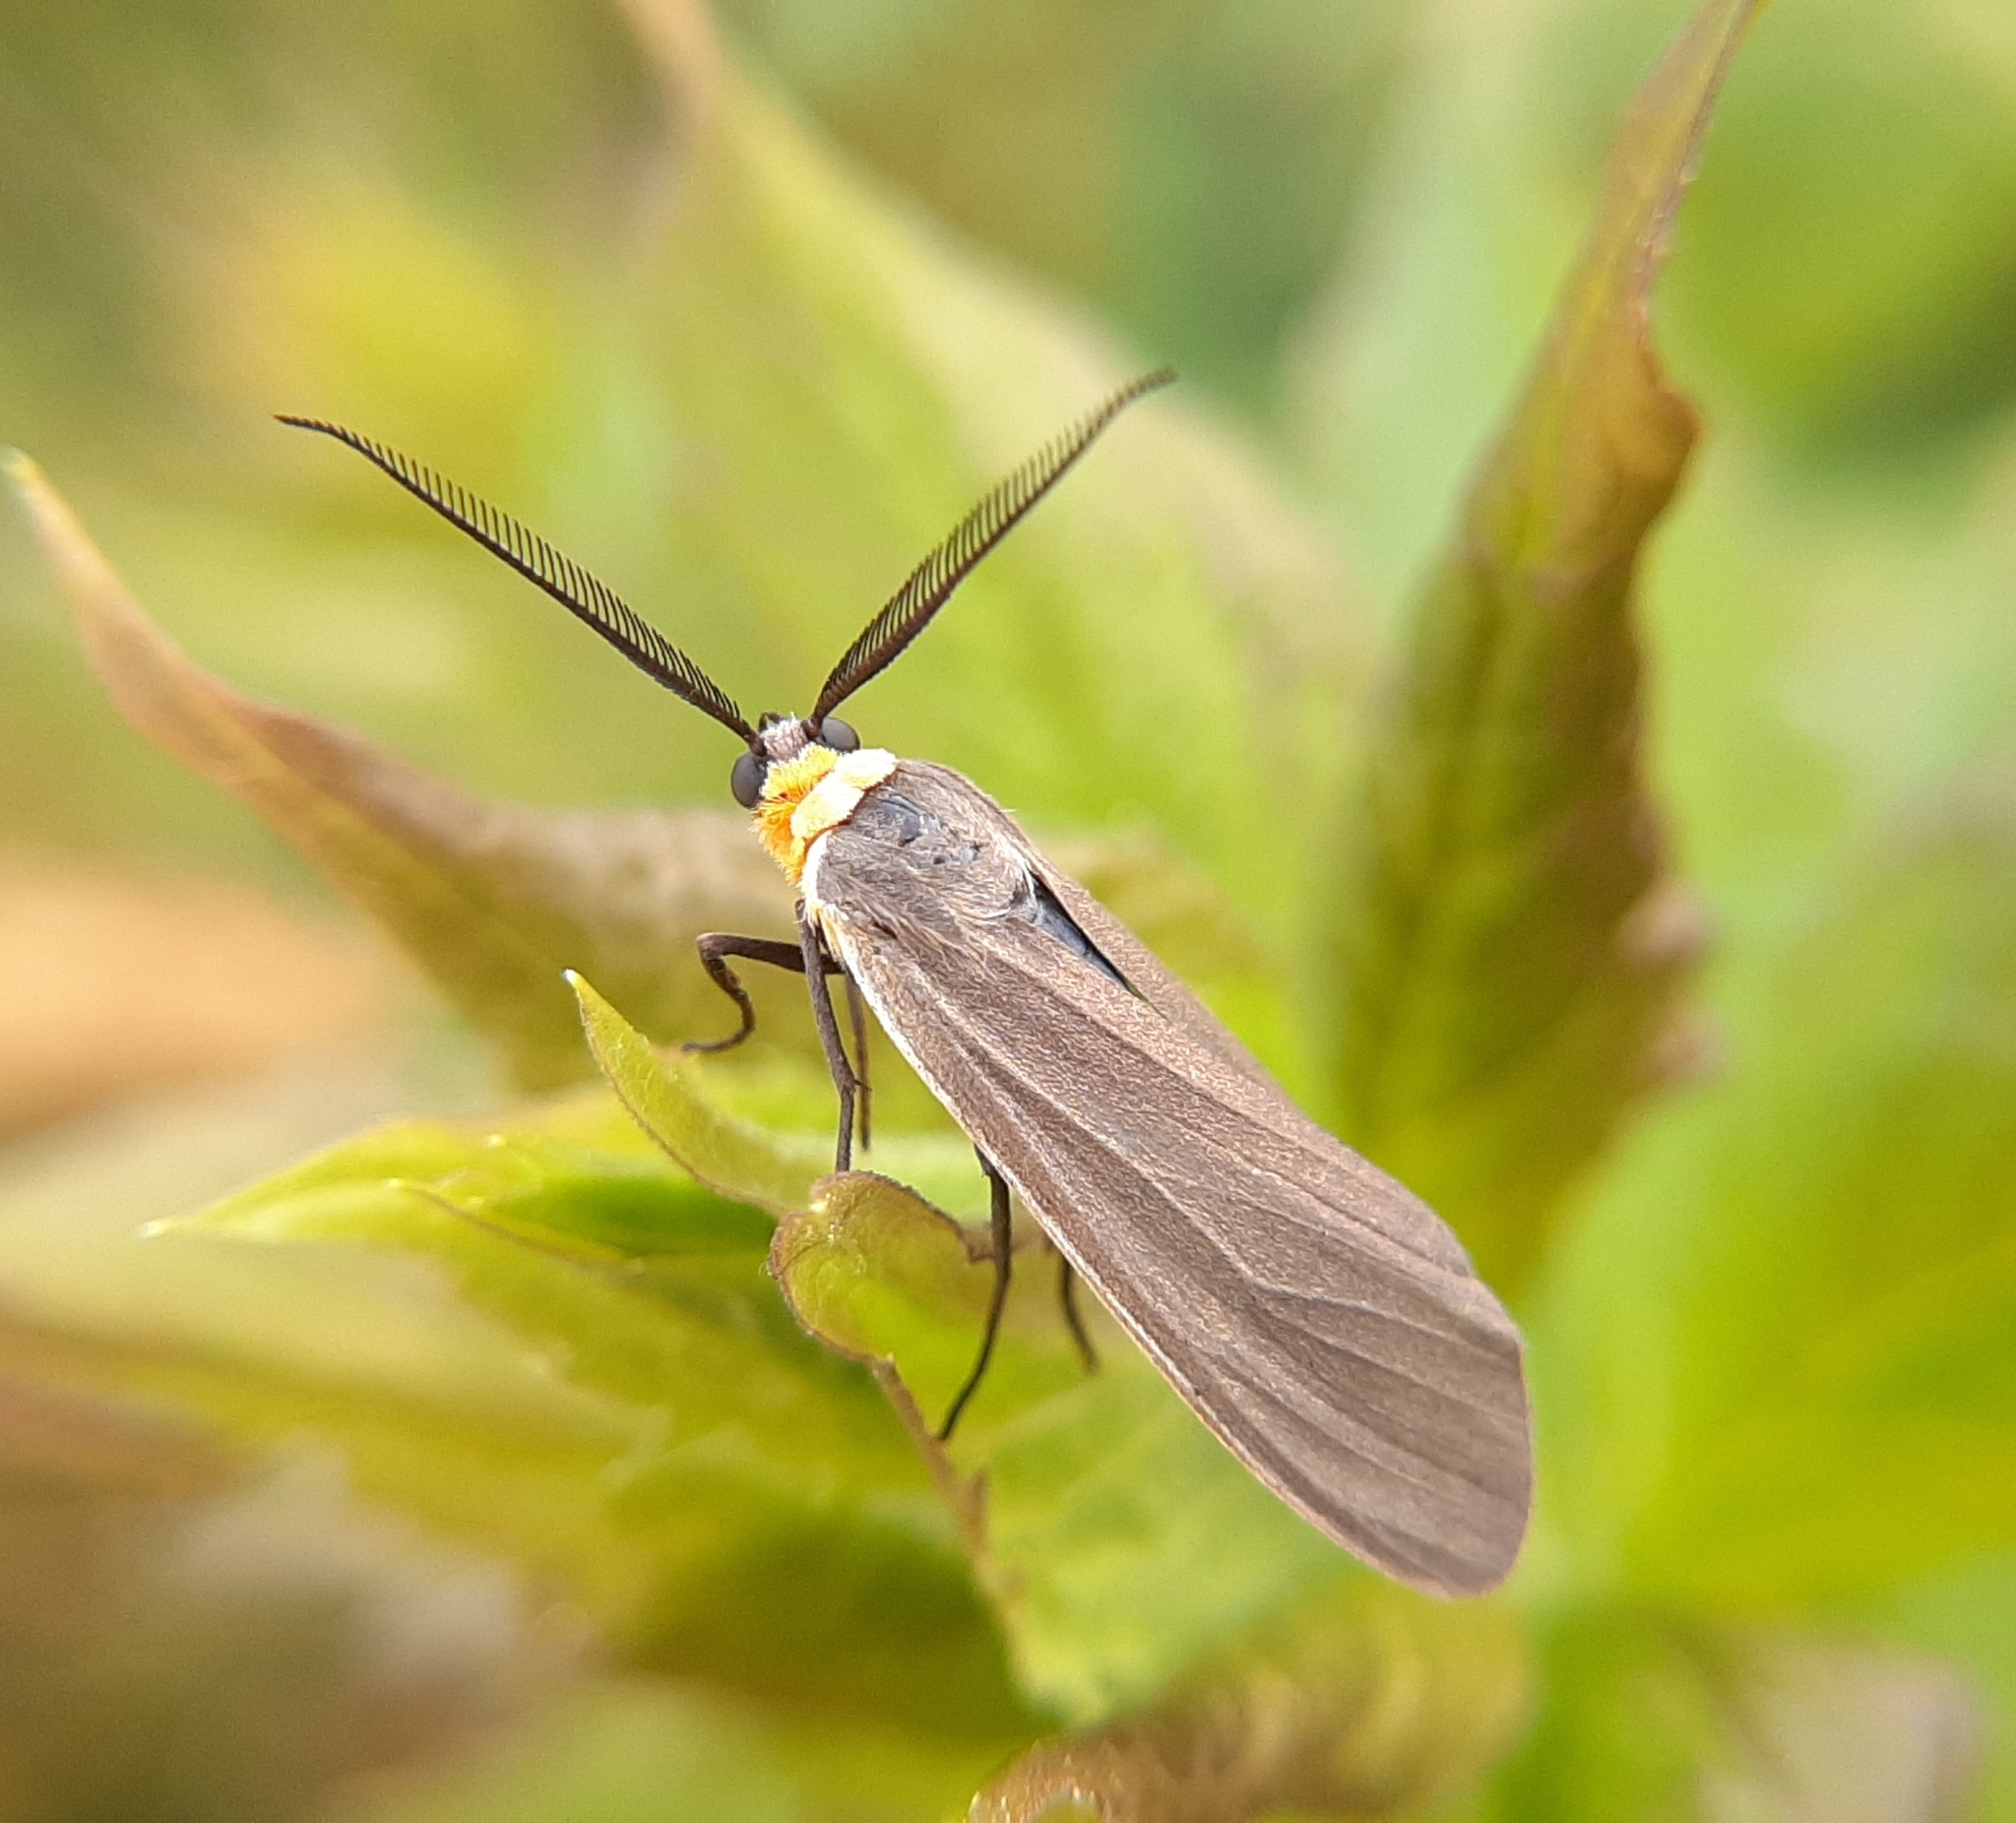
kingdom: Animalia
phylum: Arthropoda
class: Insecta
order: Lepidoptera
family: Erebidae
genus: Cisseps
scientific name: Cisseps fulvicollis
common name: Yellow-collared scape moth
